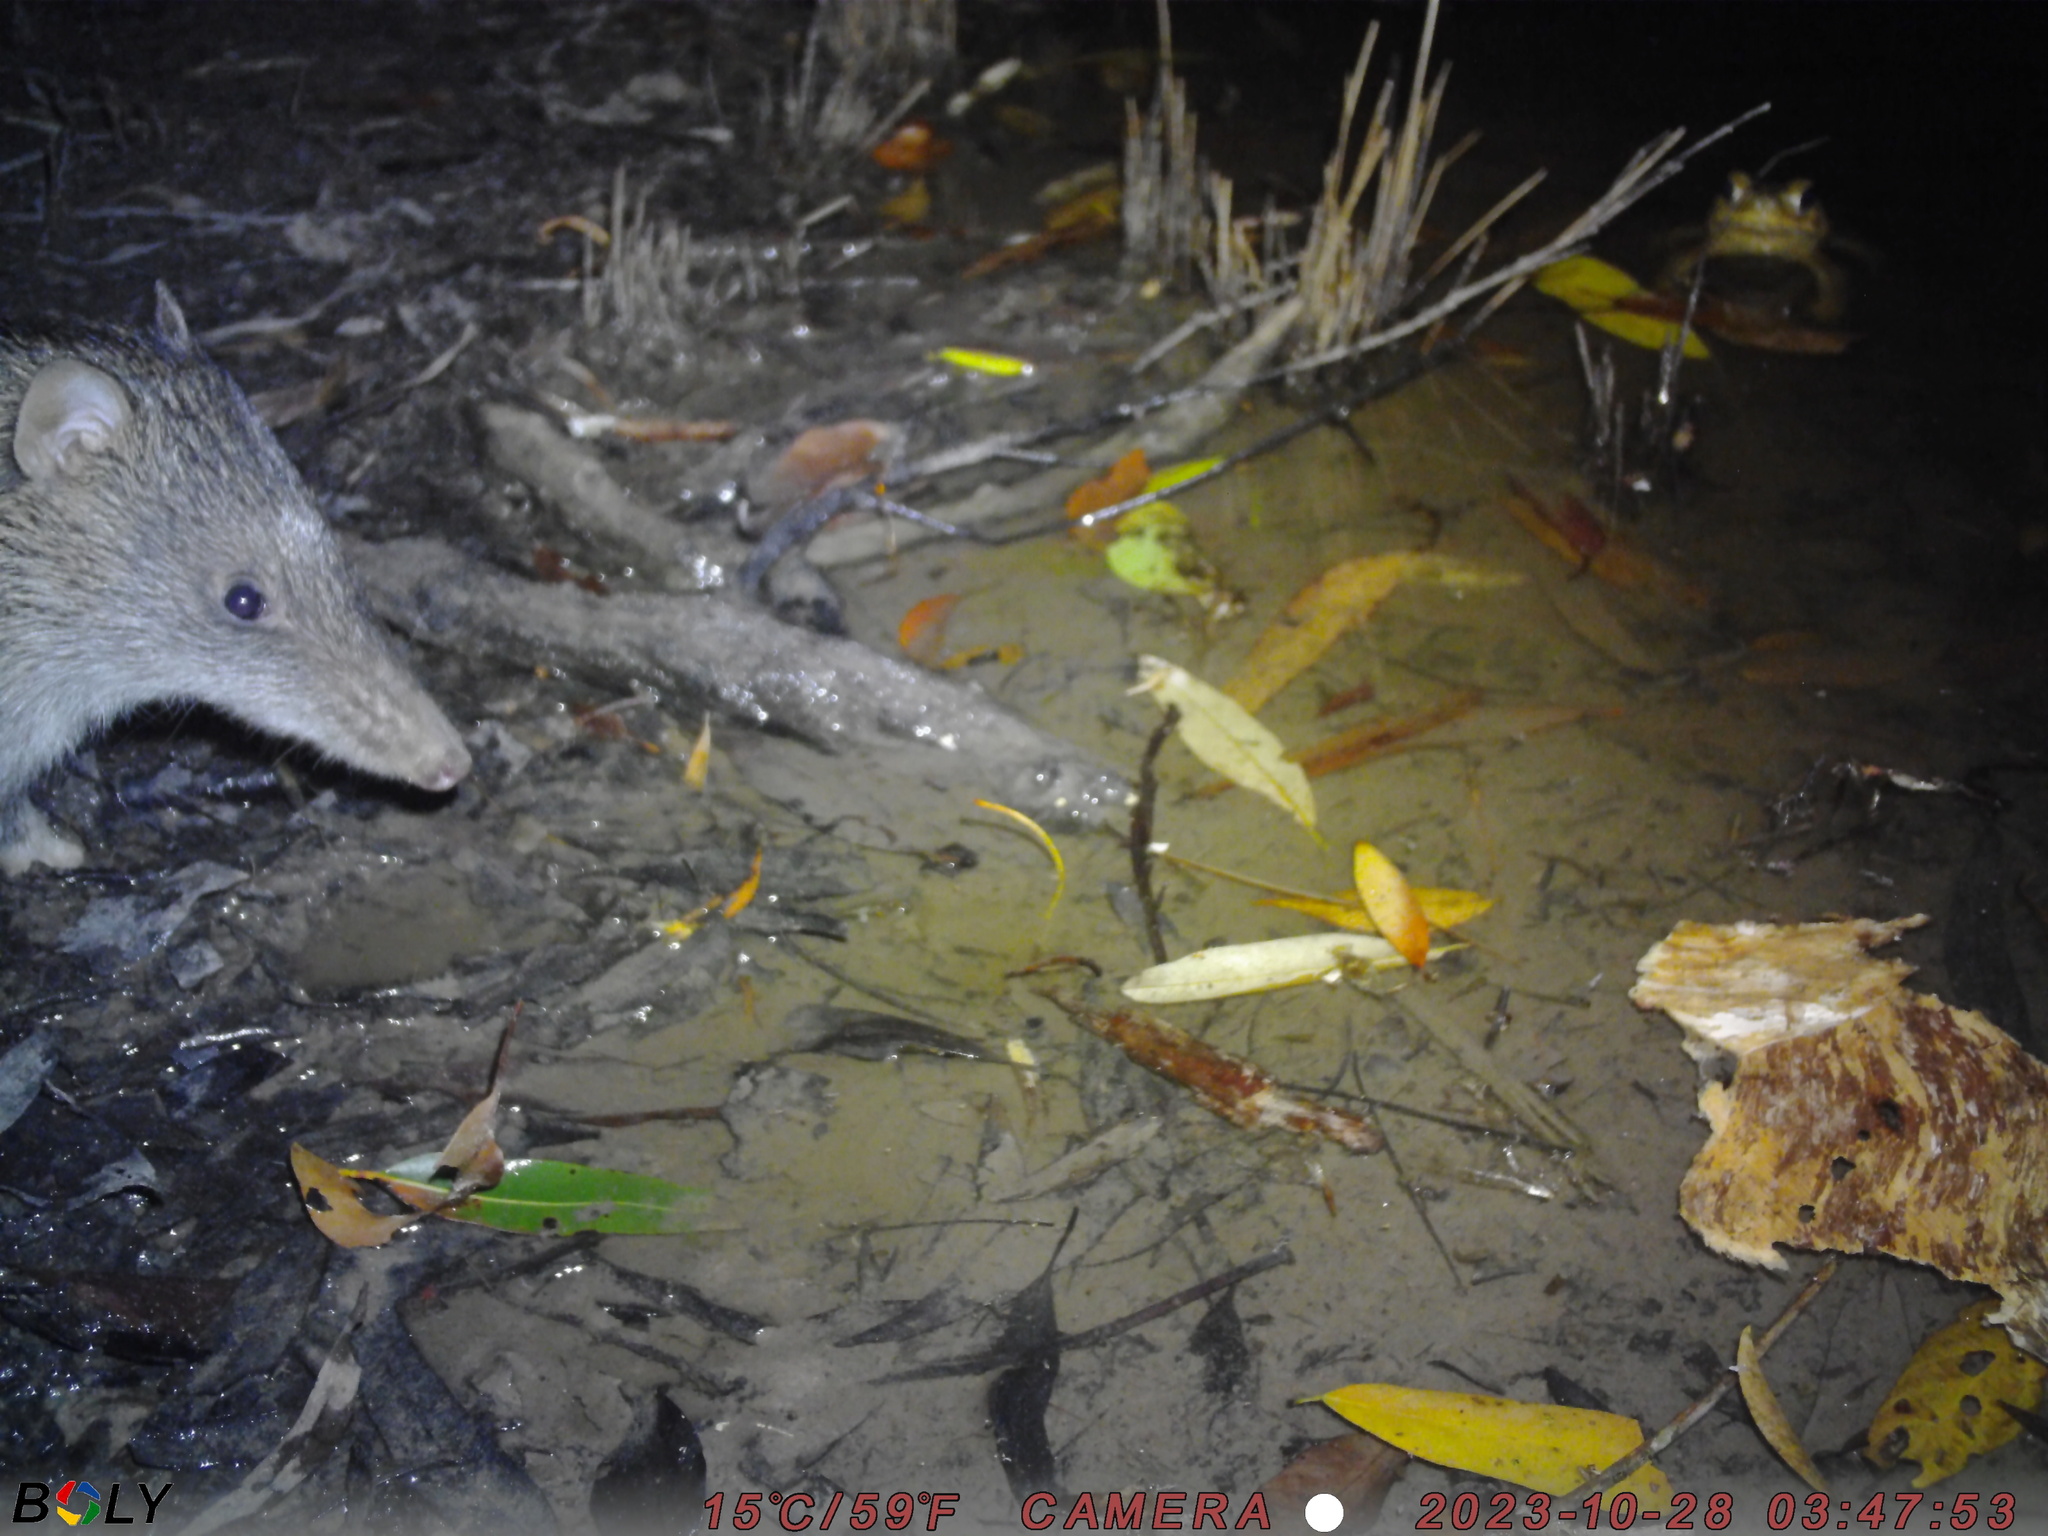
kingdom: Animalia
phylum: Chordata
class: Mammalia
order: Peramelemorphia
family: Peramelidae
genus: Isoodon
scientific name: Isoodon macrourus
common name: Northern brown bandicoot
